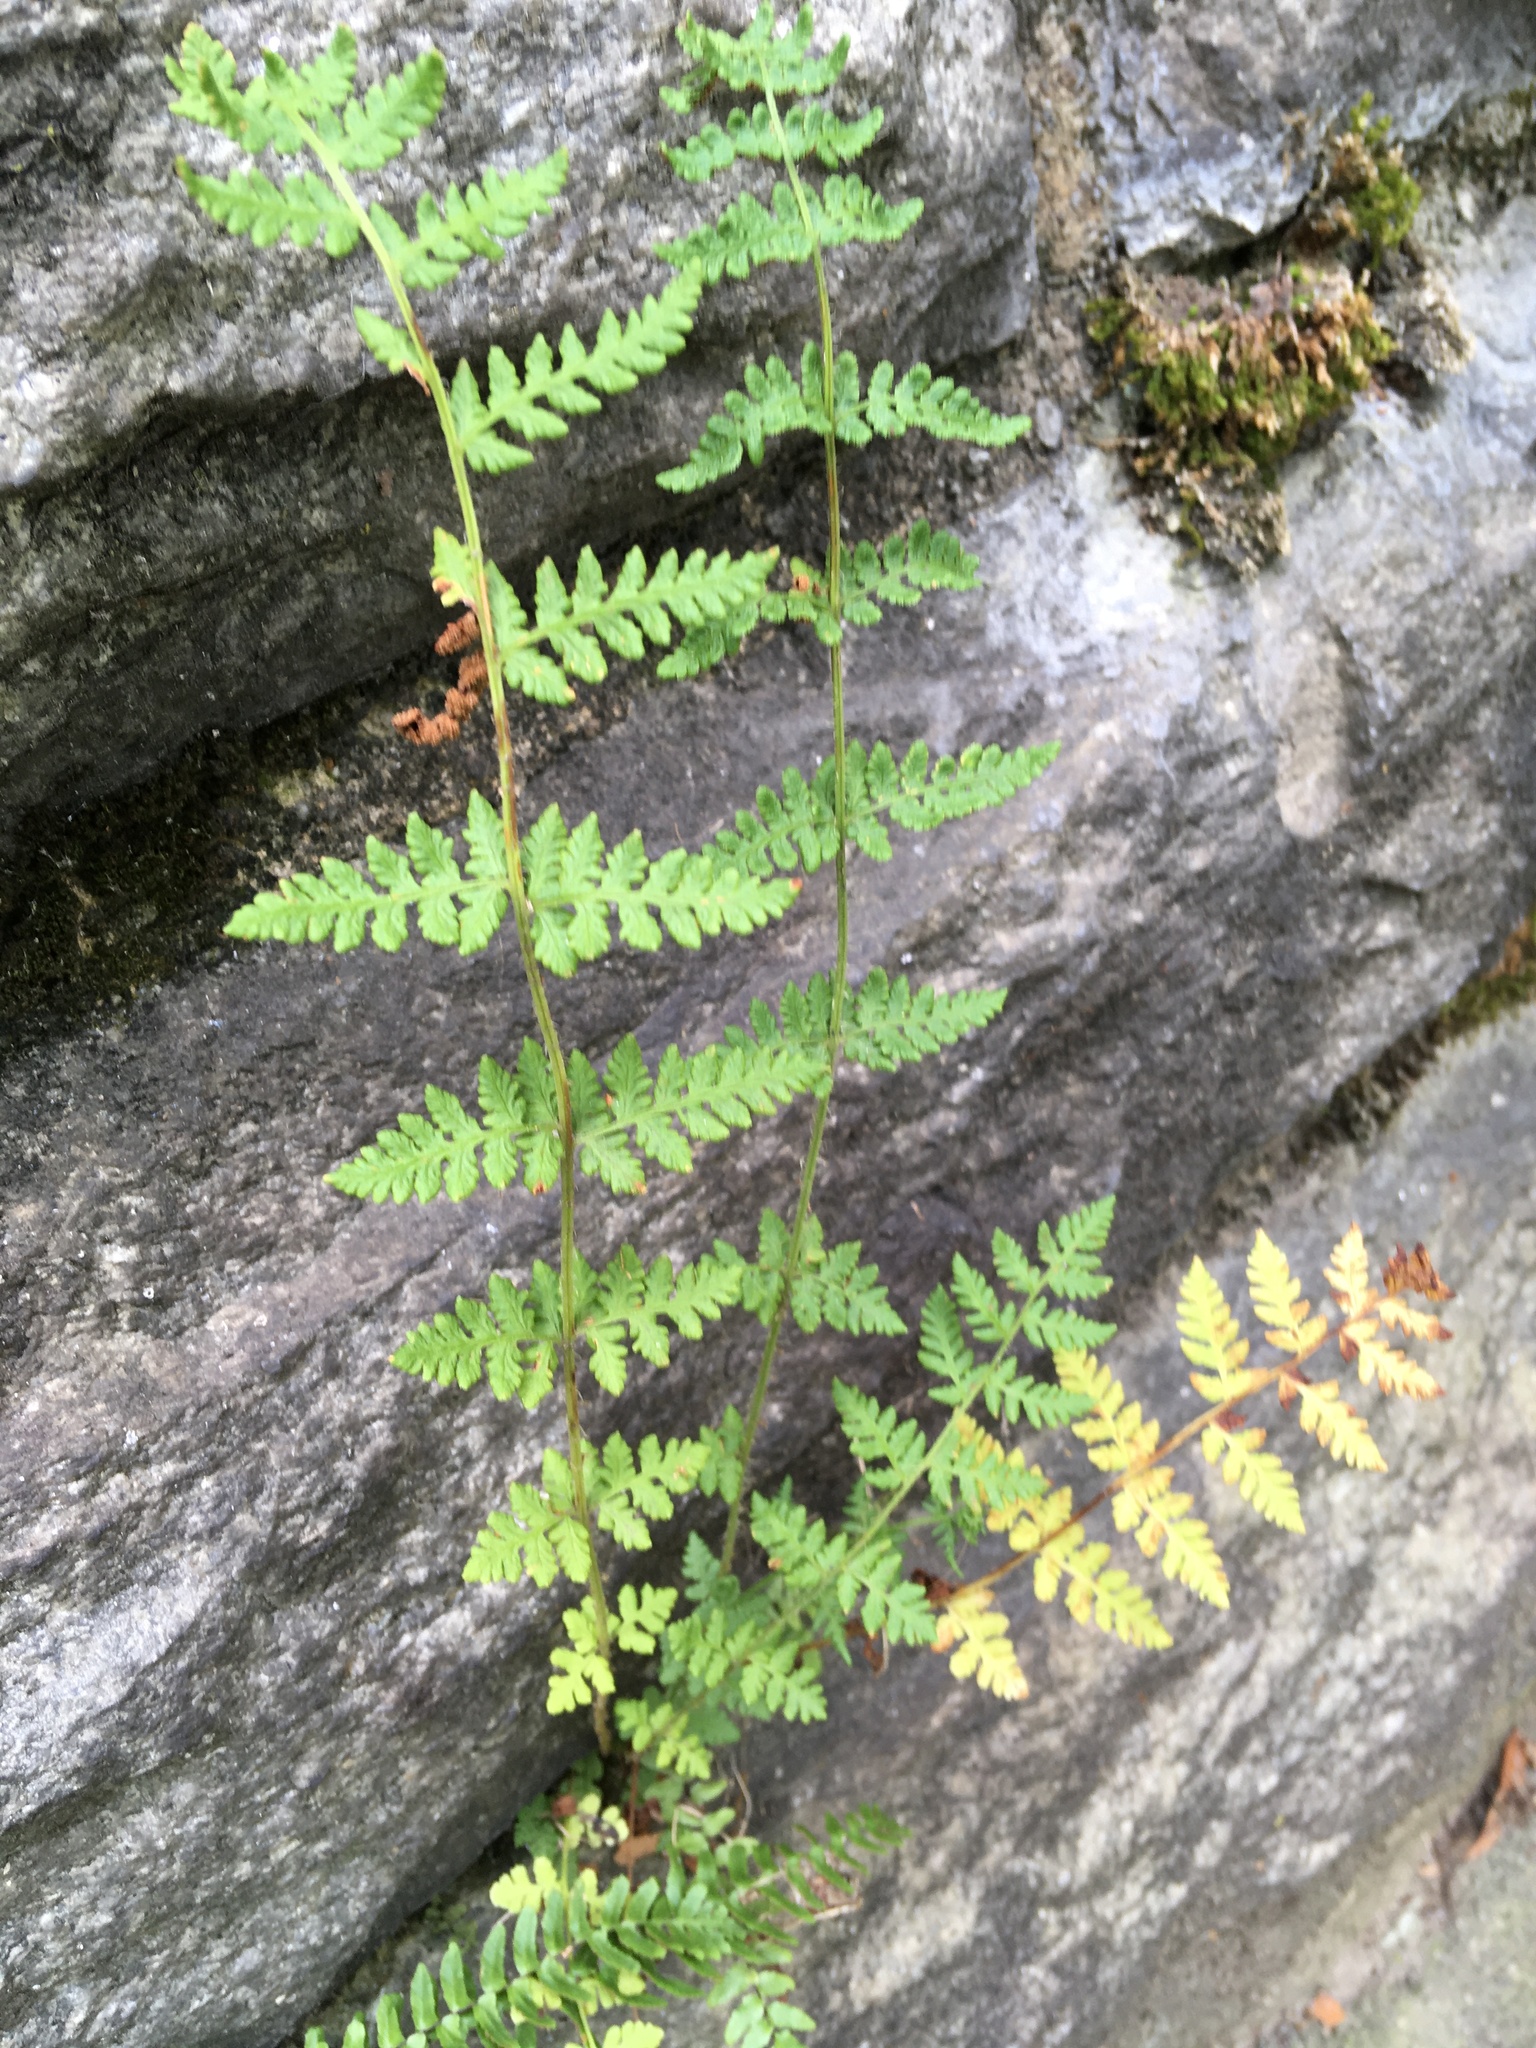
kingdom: Plantae
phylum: Tracheophyta
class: Polypodiopsida
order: Polypodiales
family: Woodsiaceae
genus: Physematium
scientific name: Physematium obtusum
